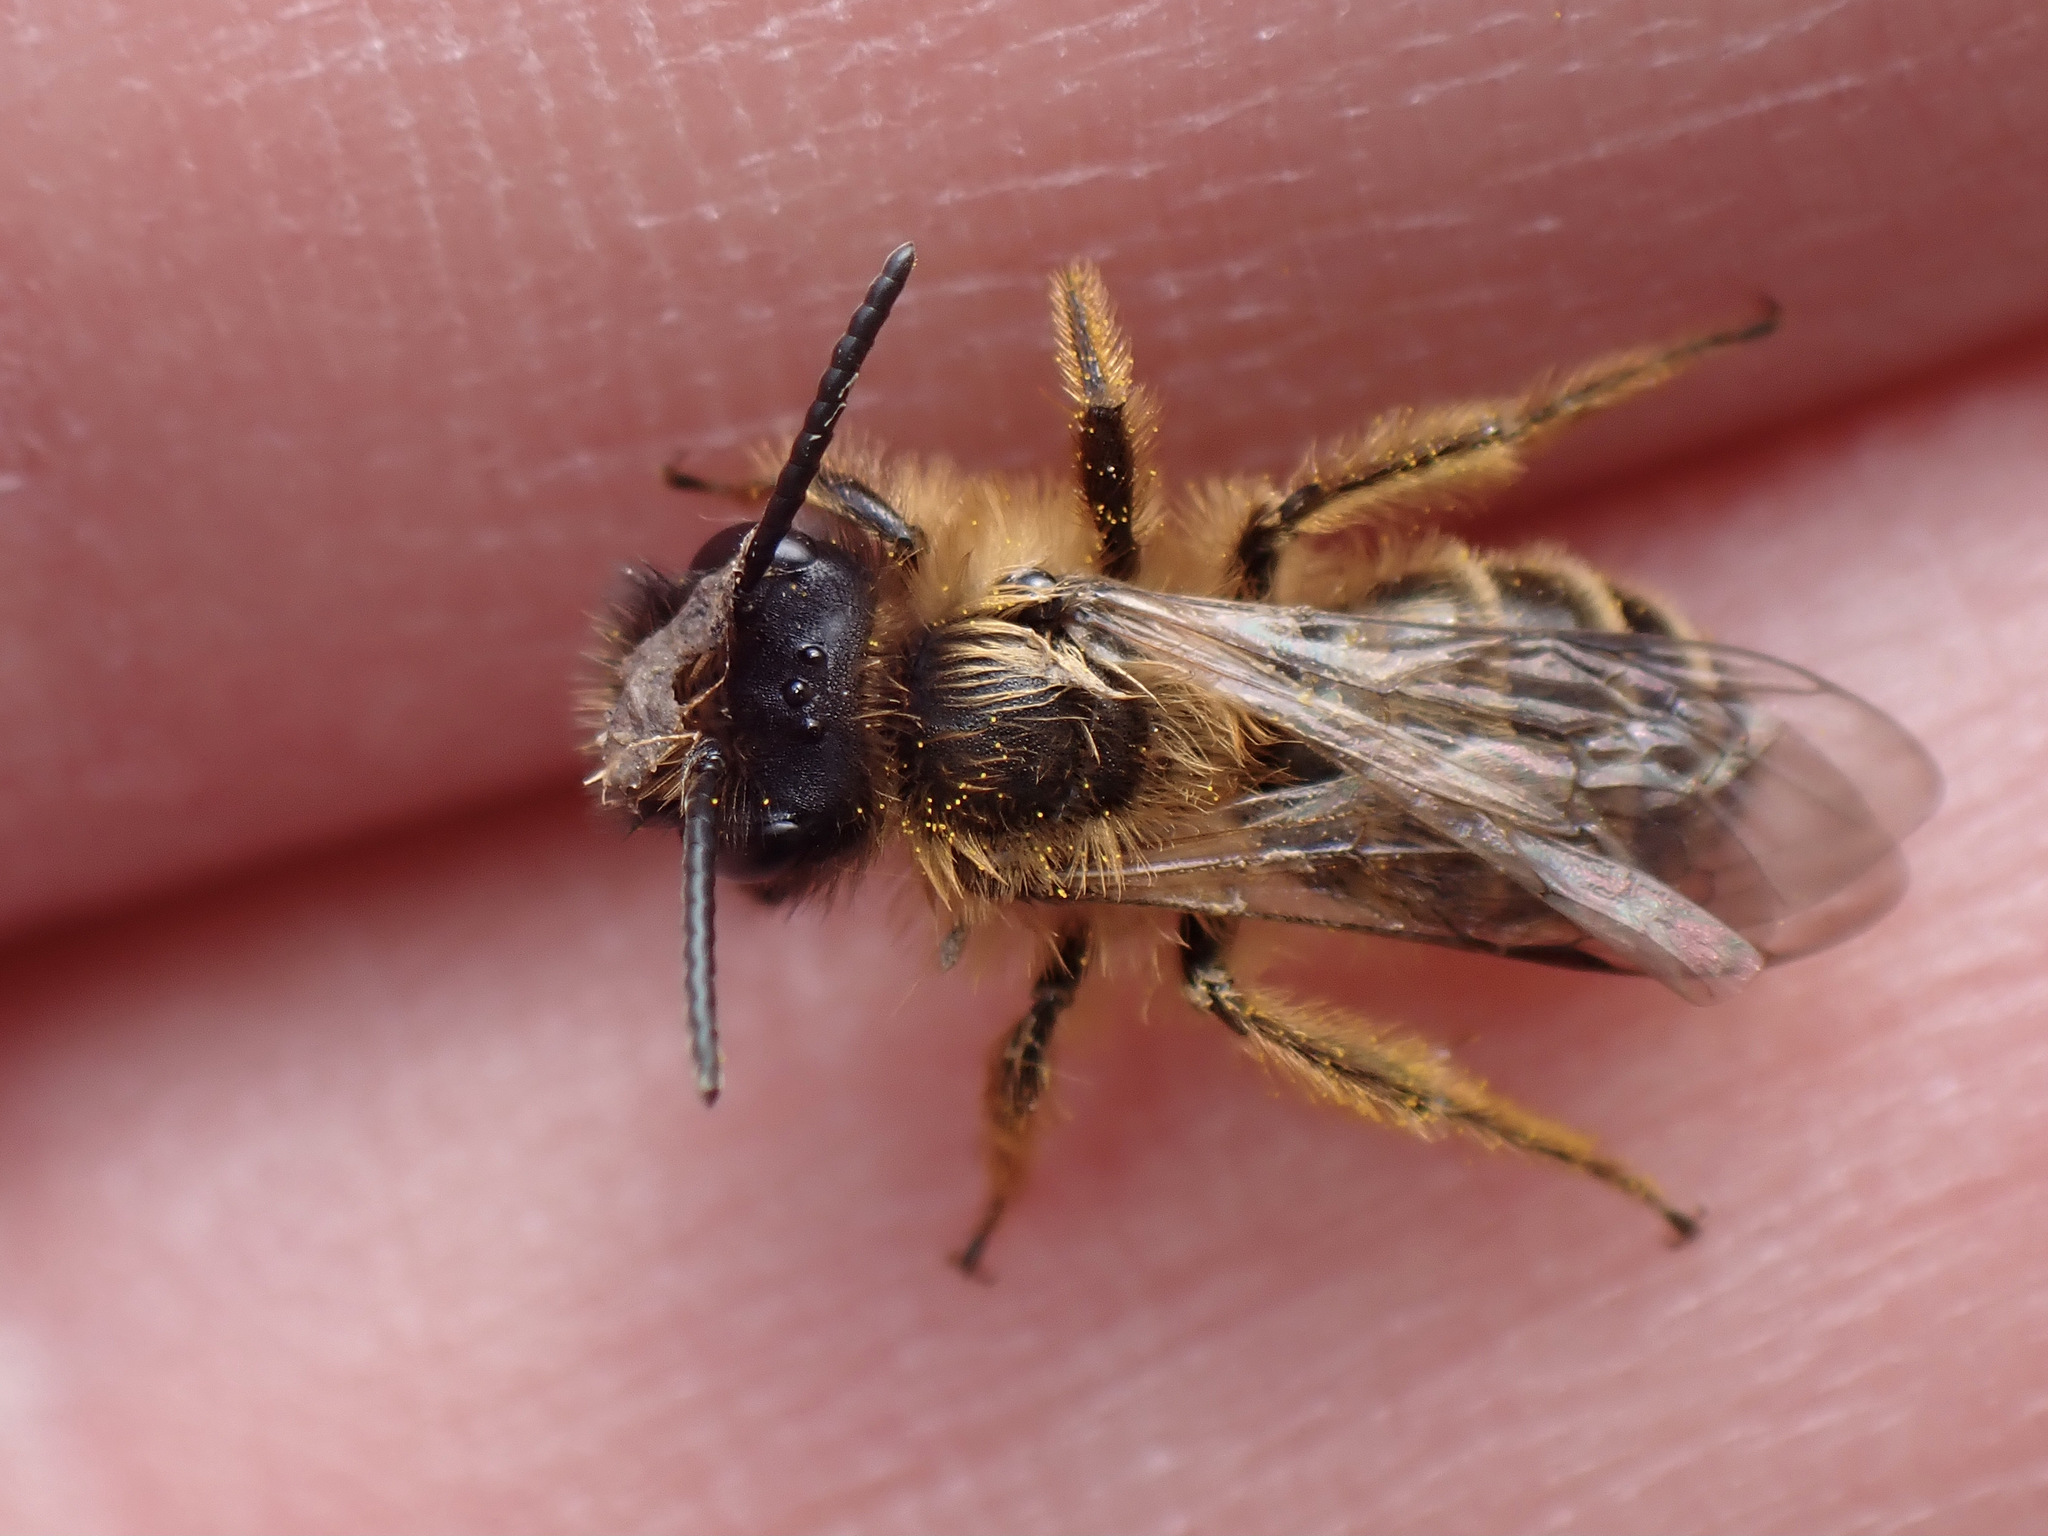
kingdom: Animalia
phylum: Arthropoda
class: Insecta
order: Hymenoptera
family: Andrenidae
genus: Andrena
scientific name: Andrena flavipes
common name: Yellow-legged mining bee
